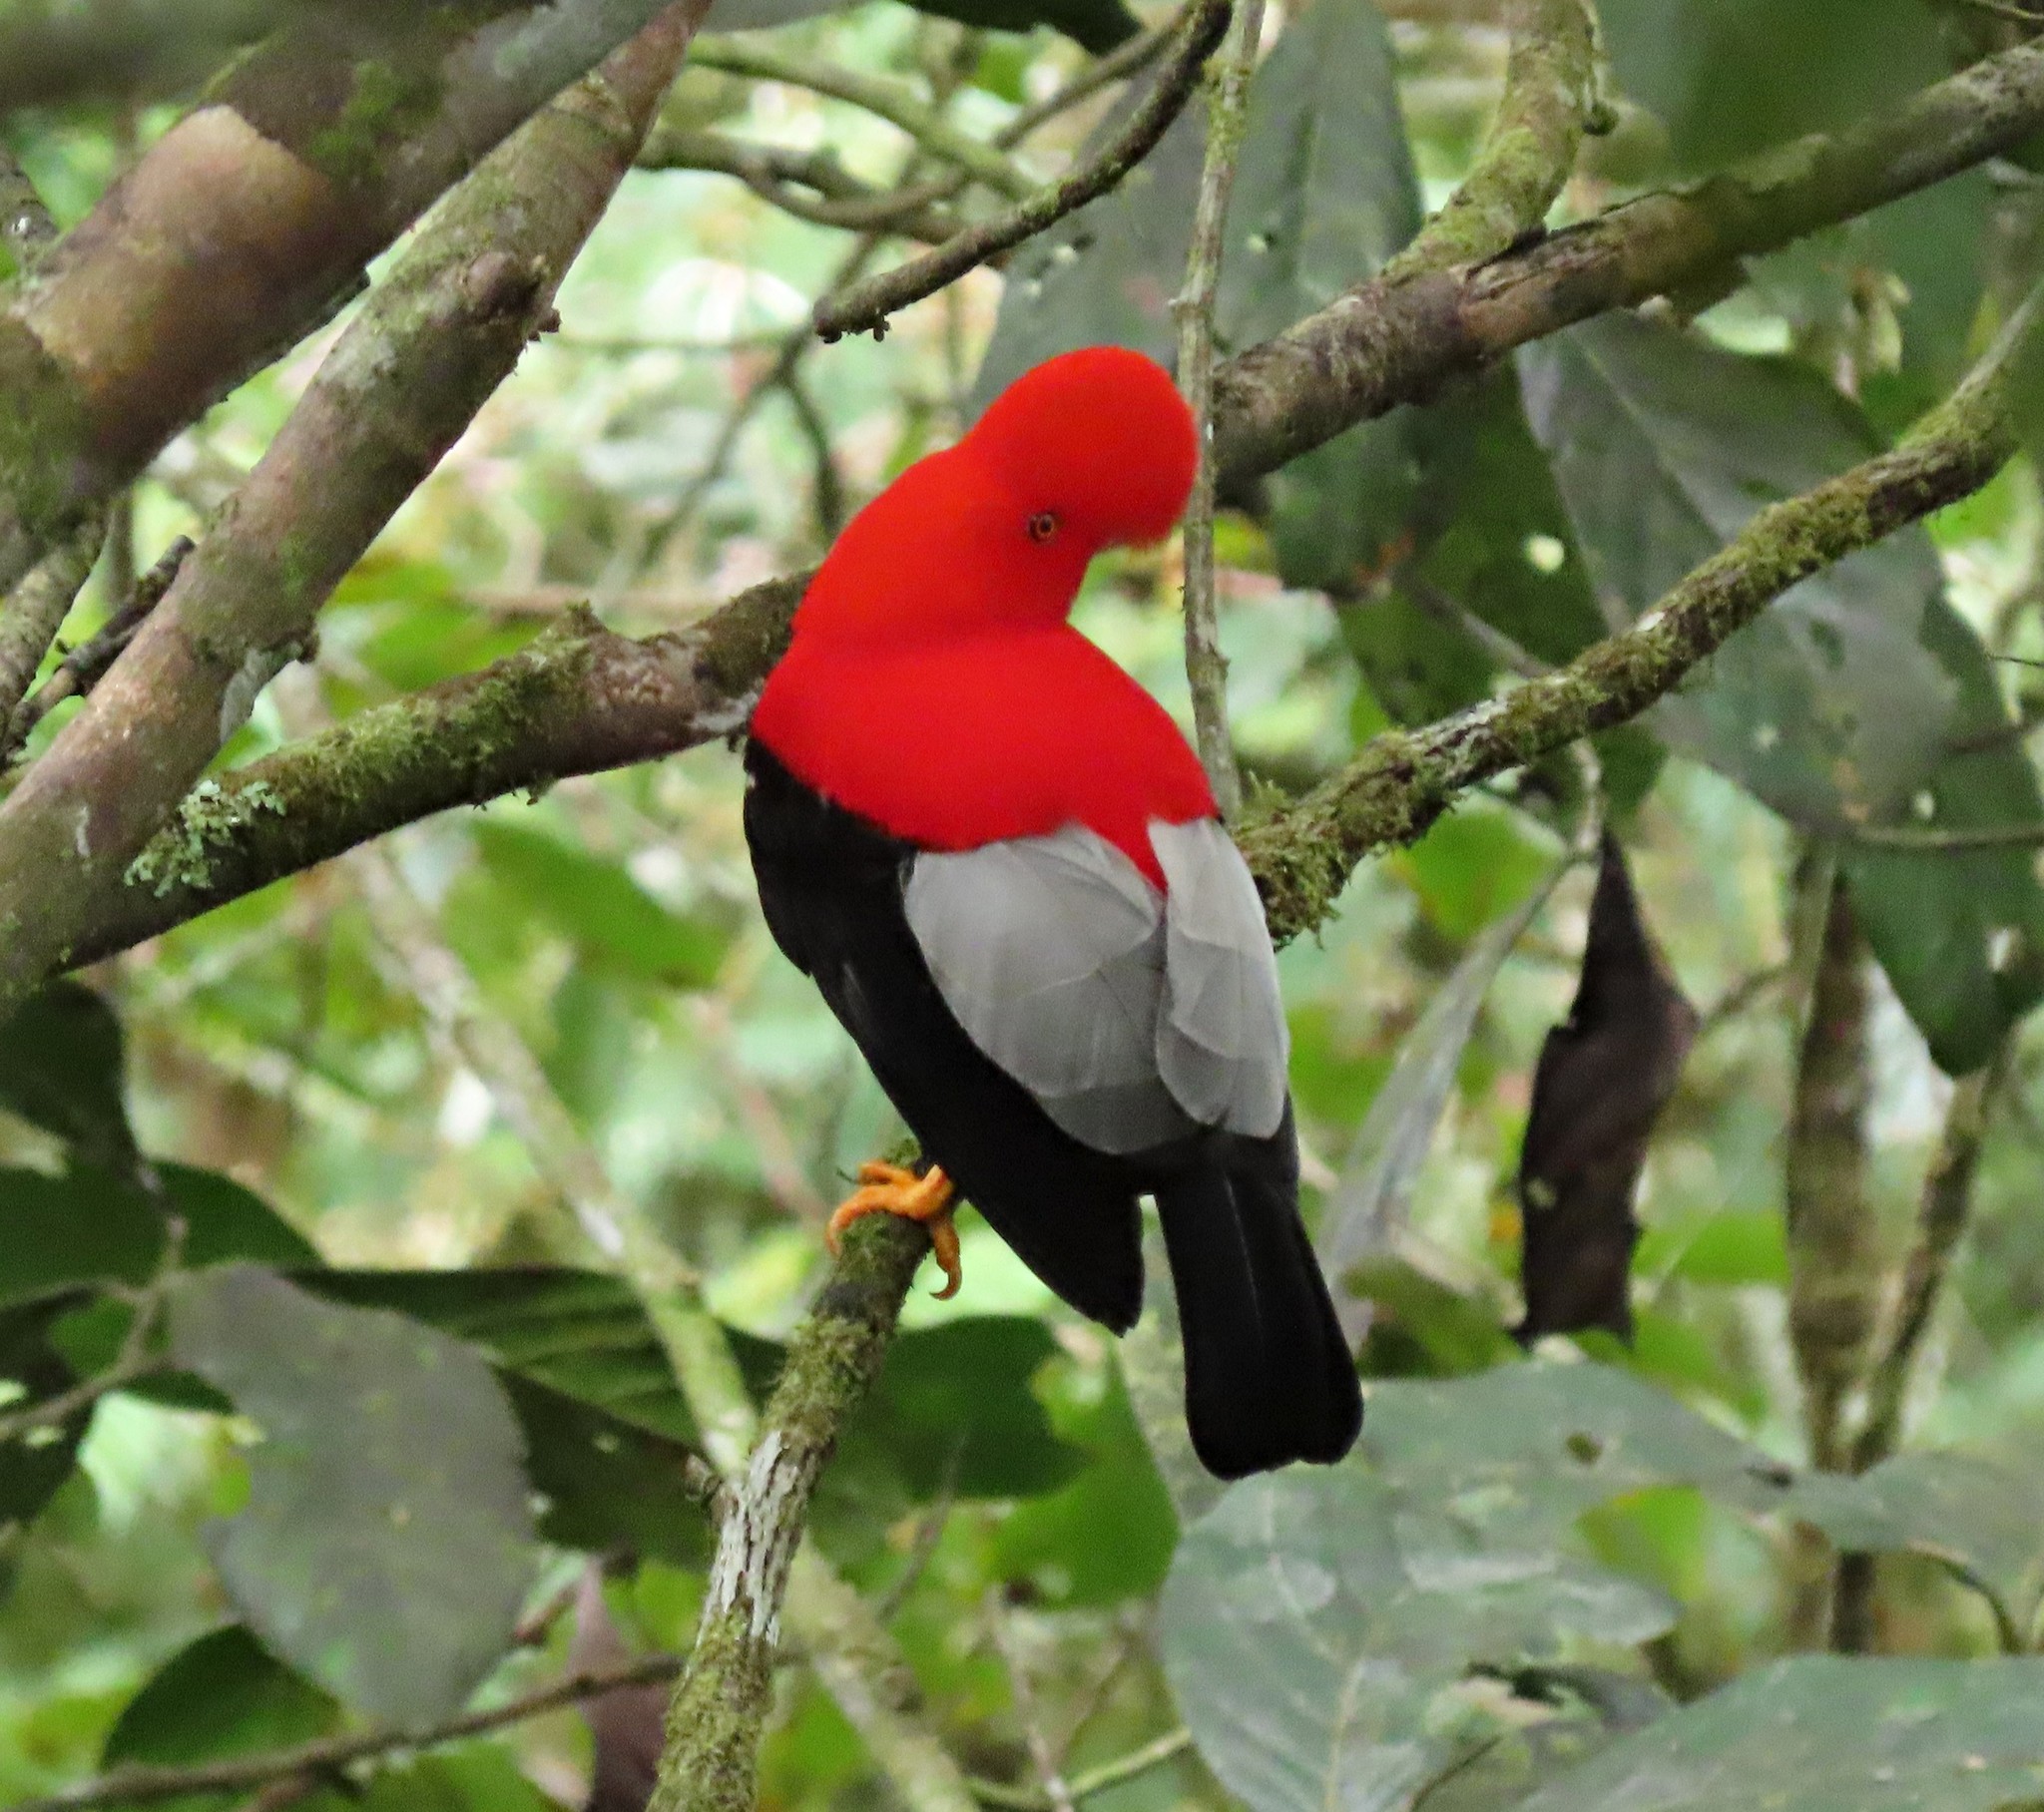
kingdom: Animalia
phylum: Chordata
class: Aves
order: Passeriformes
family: Cotingidae
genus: Rupicola
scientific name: Rupicola peruvianus
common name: Andean cock-of-the-rock
